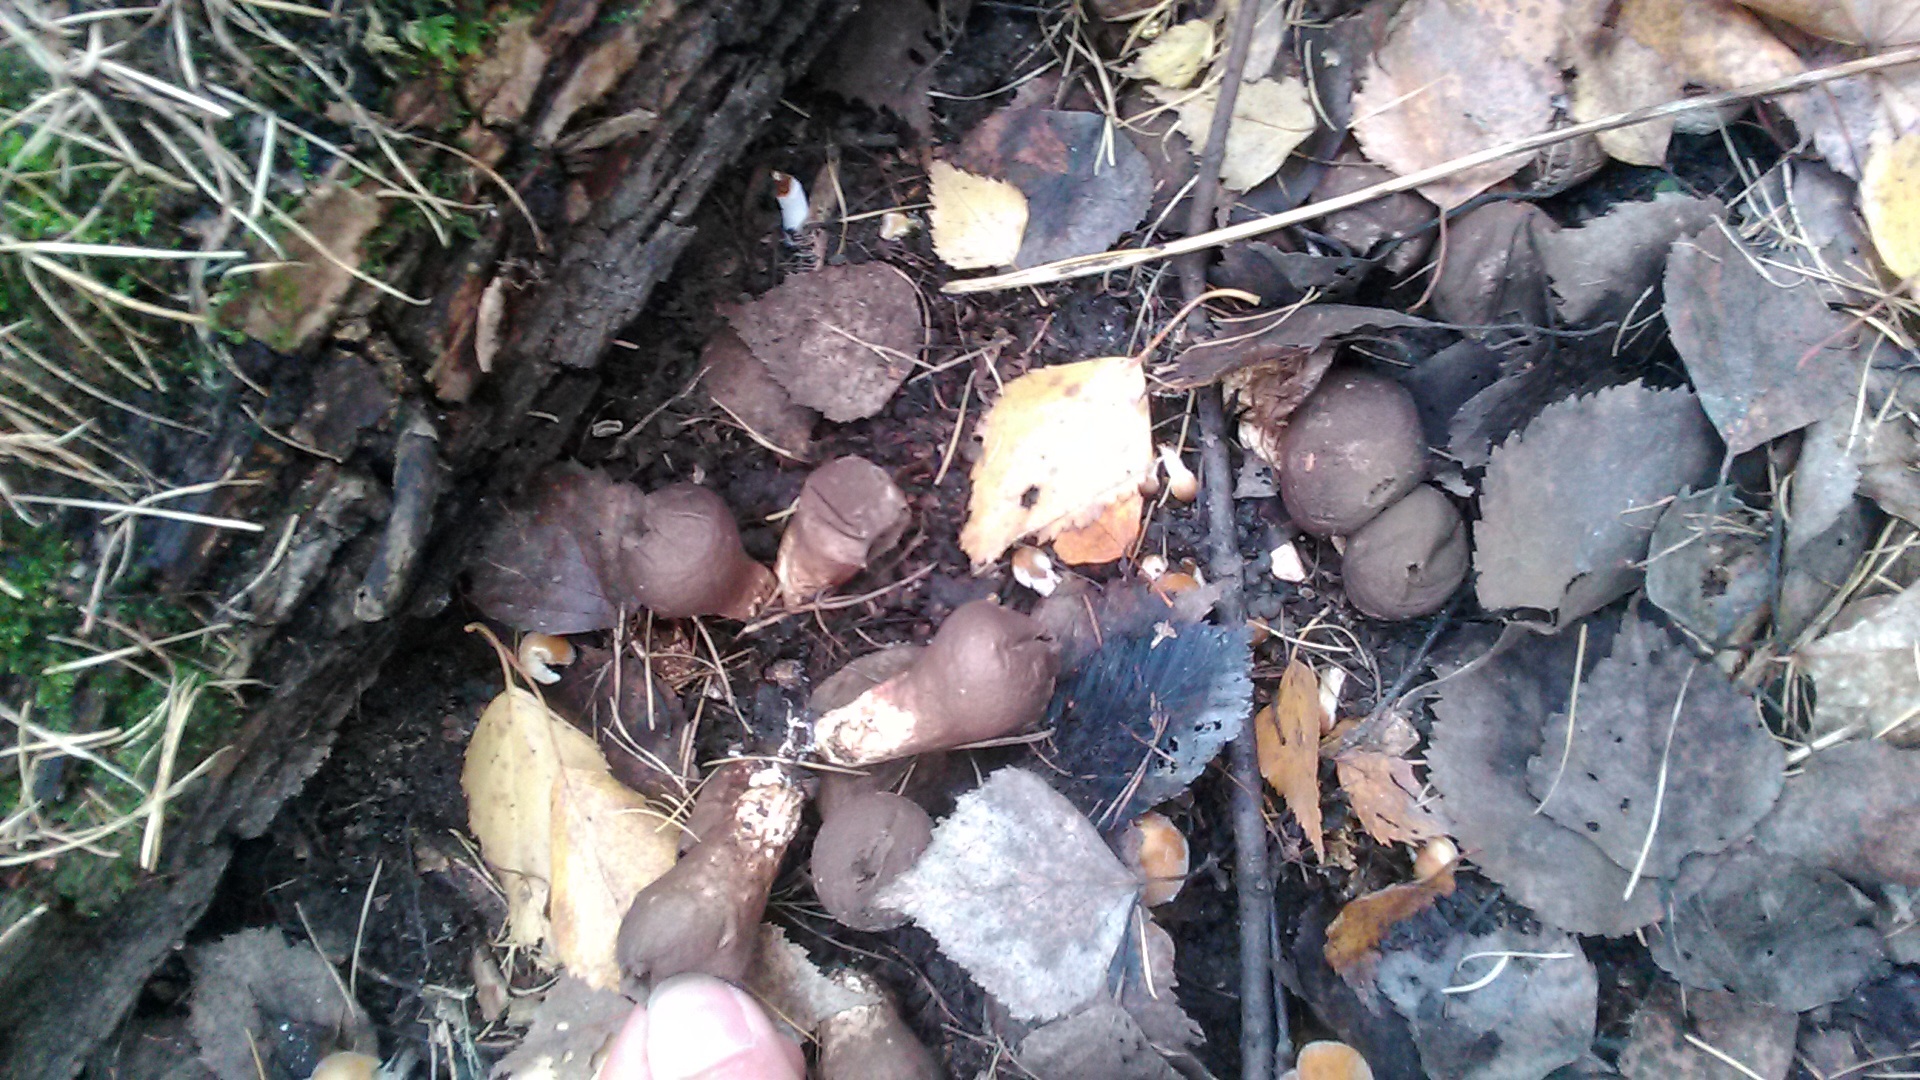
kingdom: Fungi
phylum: Basidiomycota
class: Agaricomycetes
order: Agaricales
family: Lycoperdaceae
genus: Apioperdon
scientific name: Apioperdon pyriforme
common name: Pear-shaped puffball
